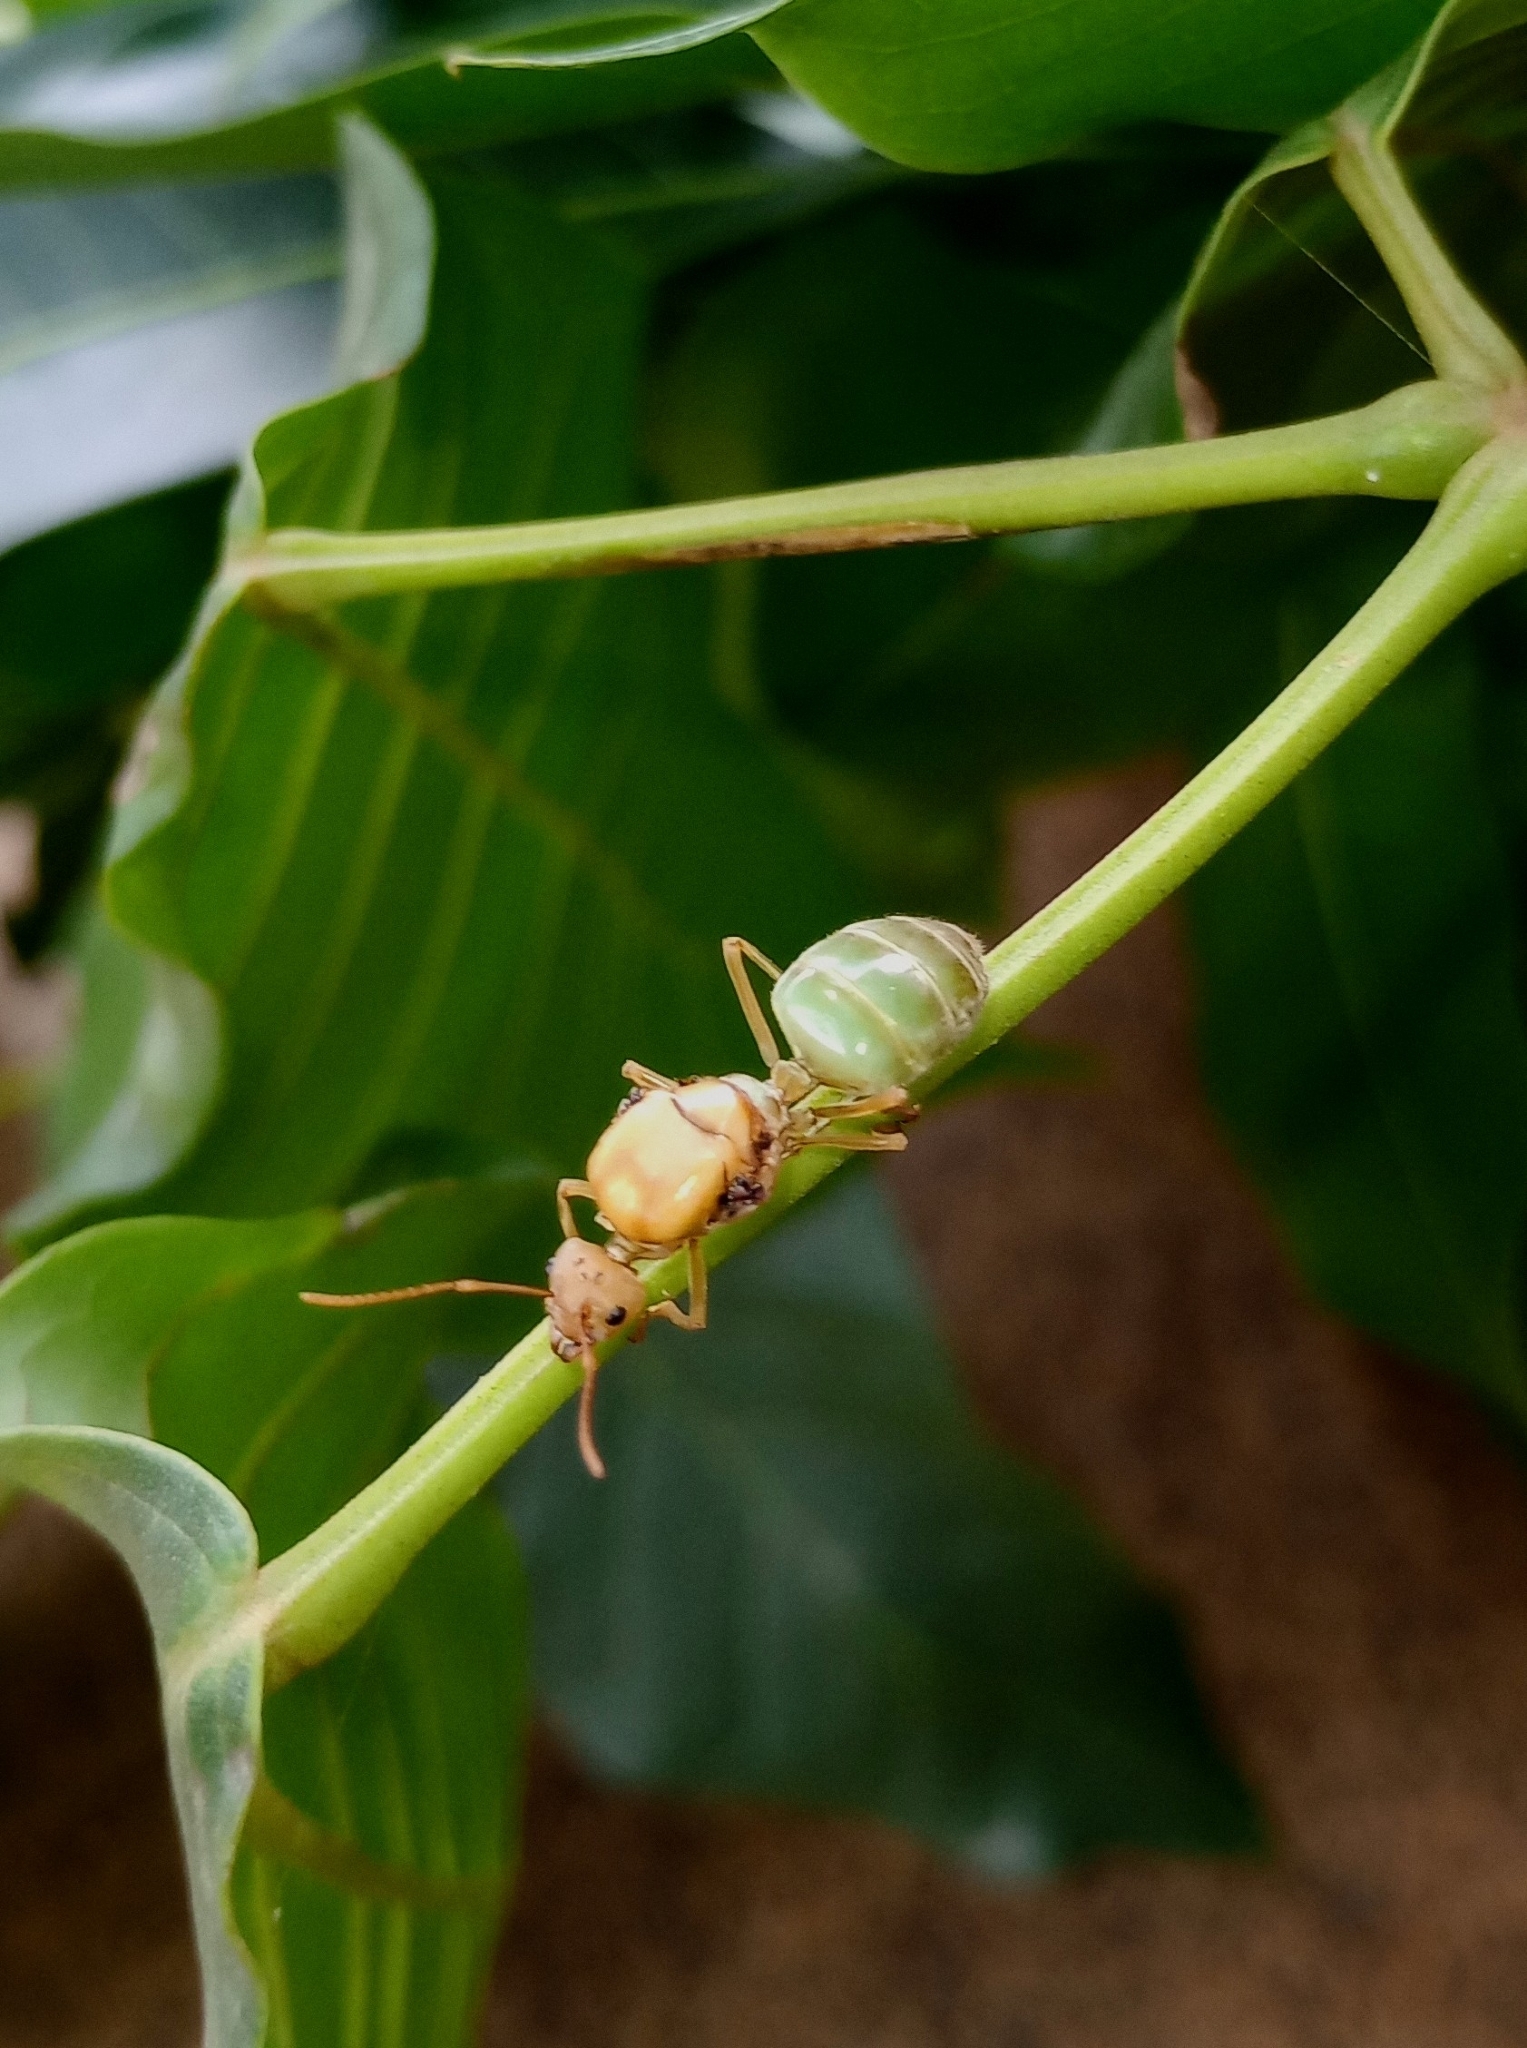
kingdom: Animalia
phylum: Arthropoda
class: Insecta
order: Hymenoptera
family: Formicidae
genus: Oecophylla
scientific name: Oecophylla smaragdina
